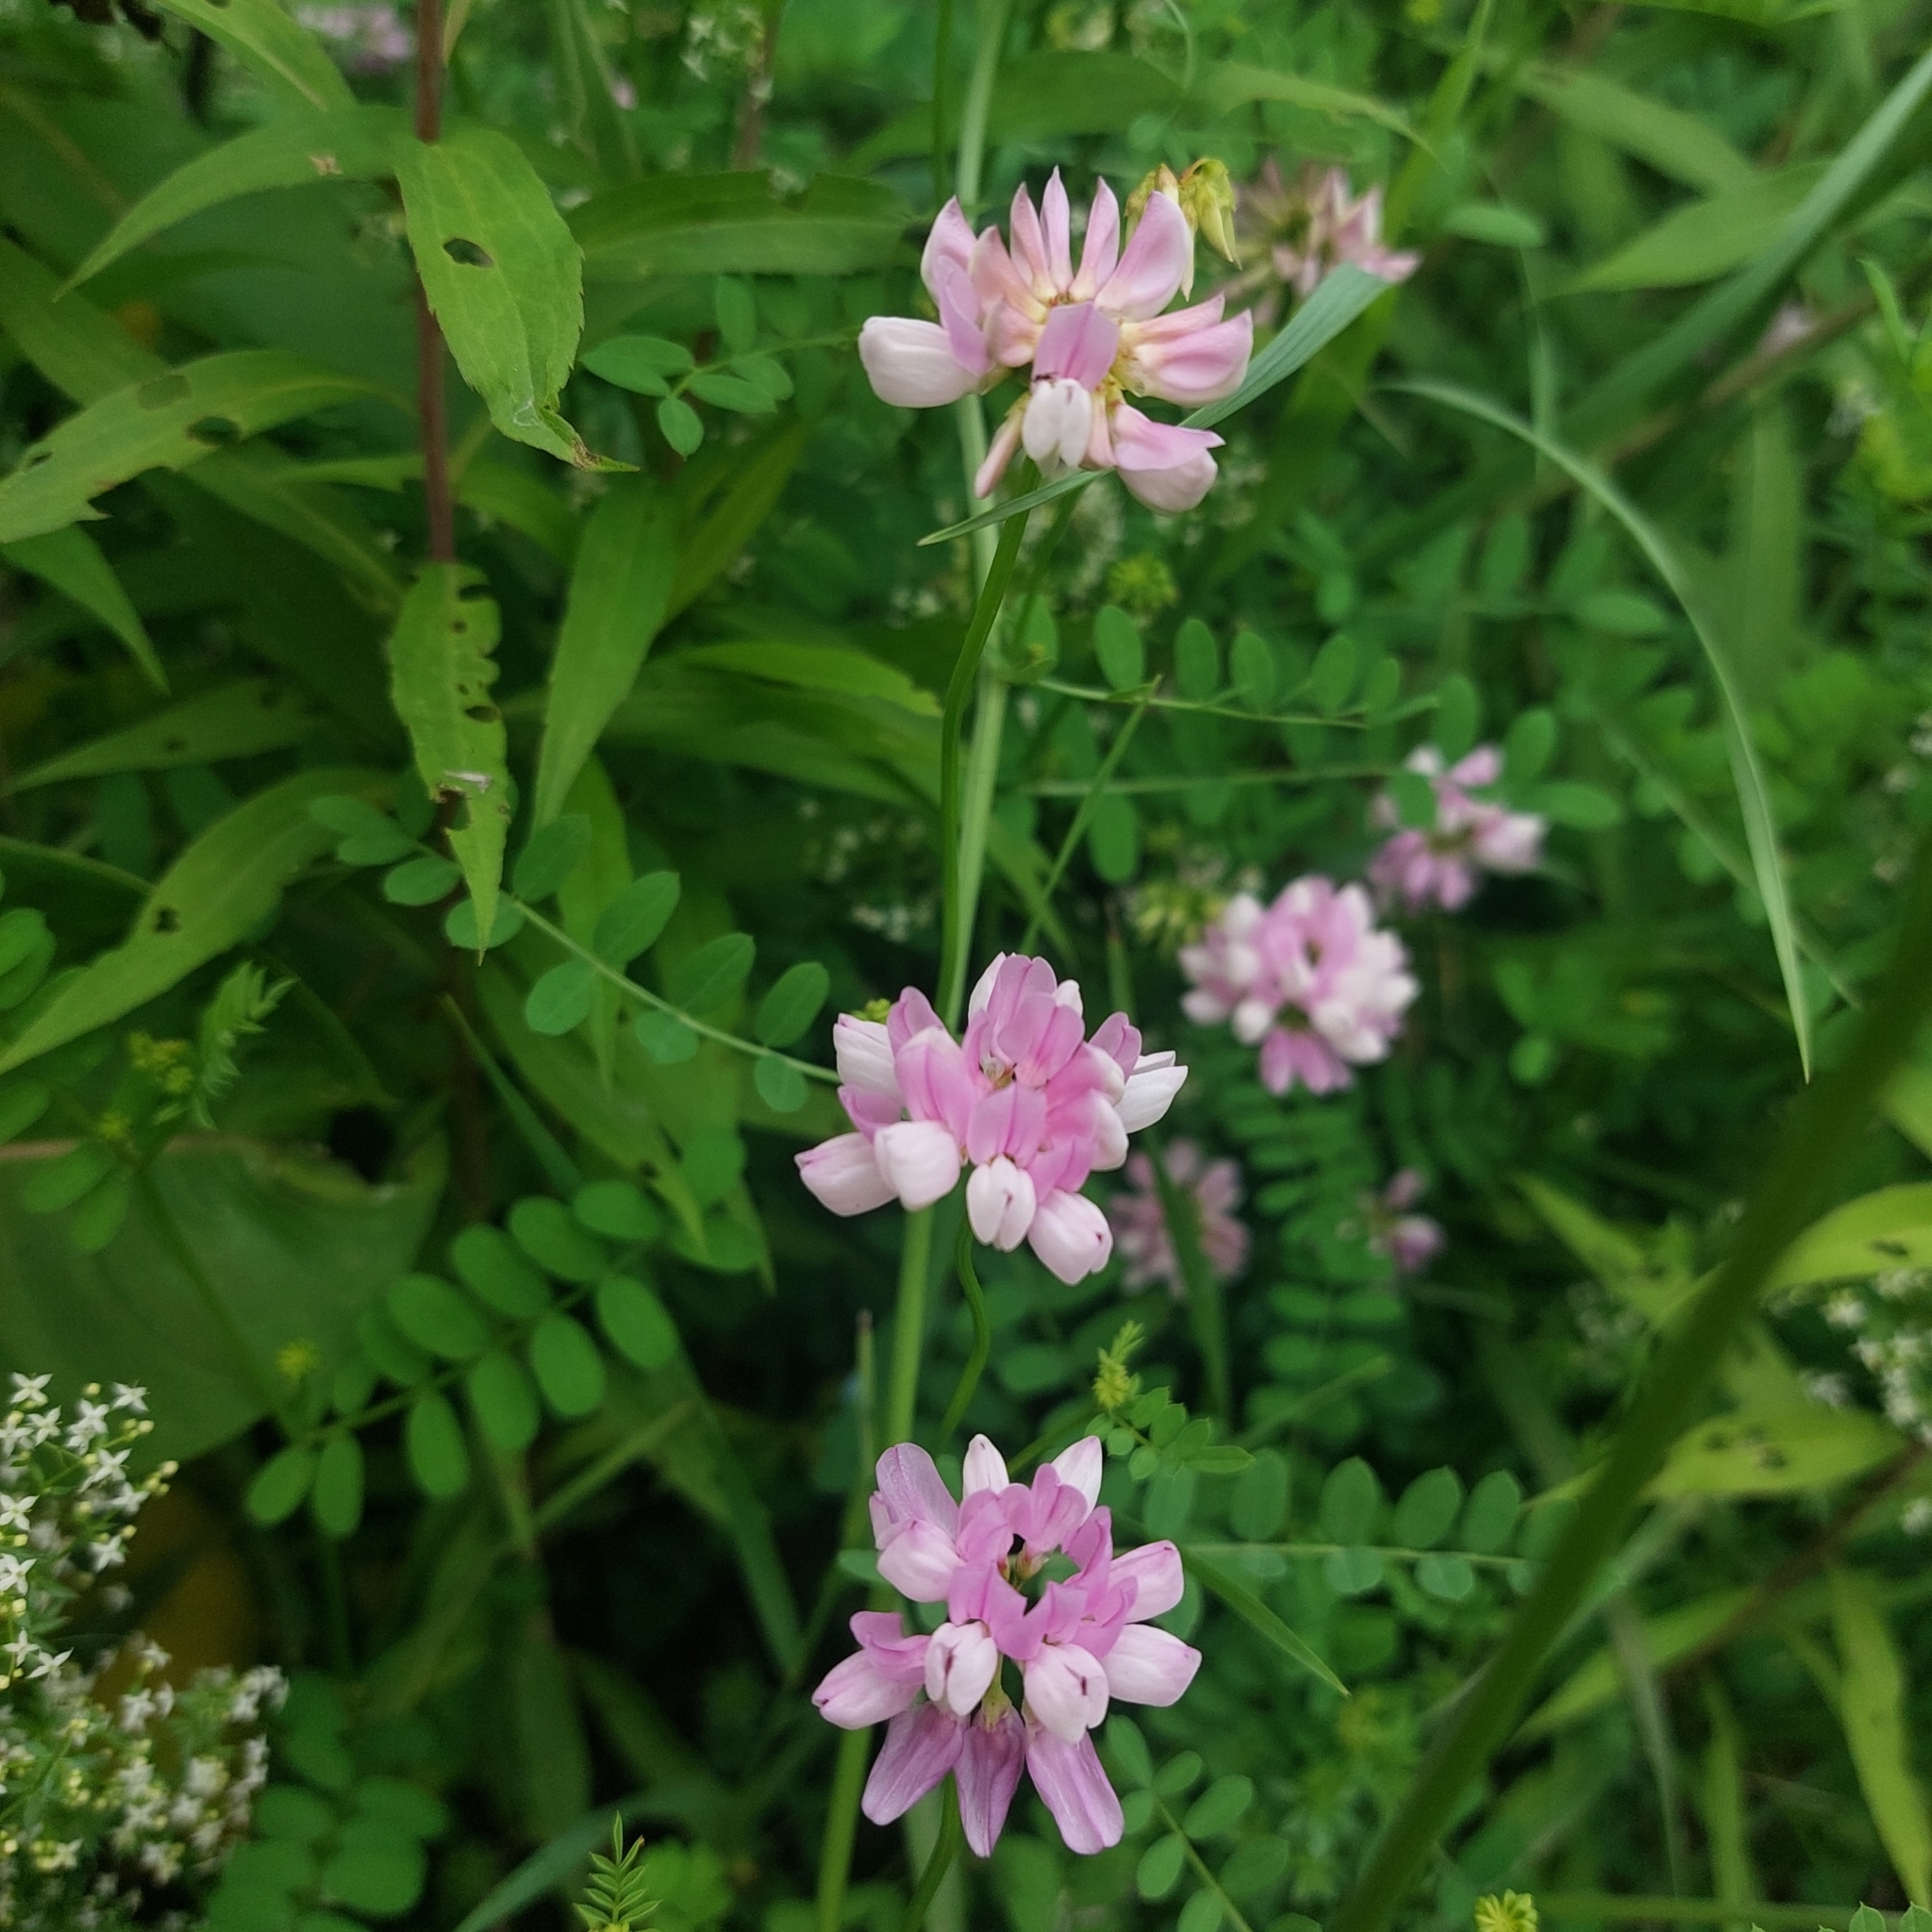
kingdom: Plantae
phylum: Tracheophyta
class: Magnoliopsida
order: Fabales
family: Fabaceae
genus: Coronilla
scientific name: Coronilla varia
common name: Crownvetch
